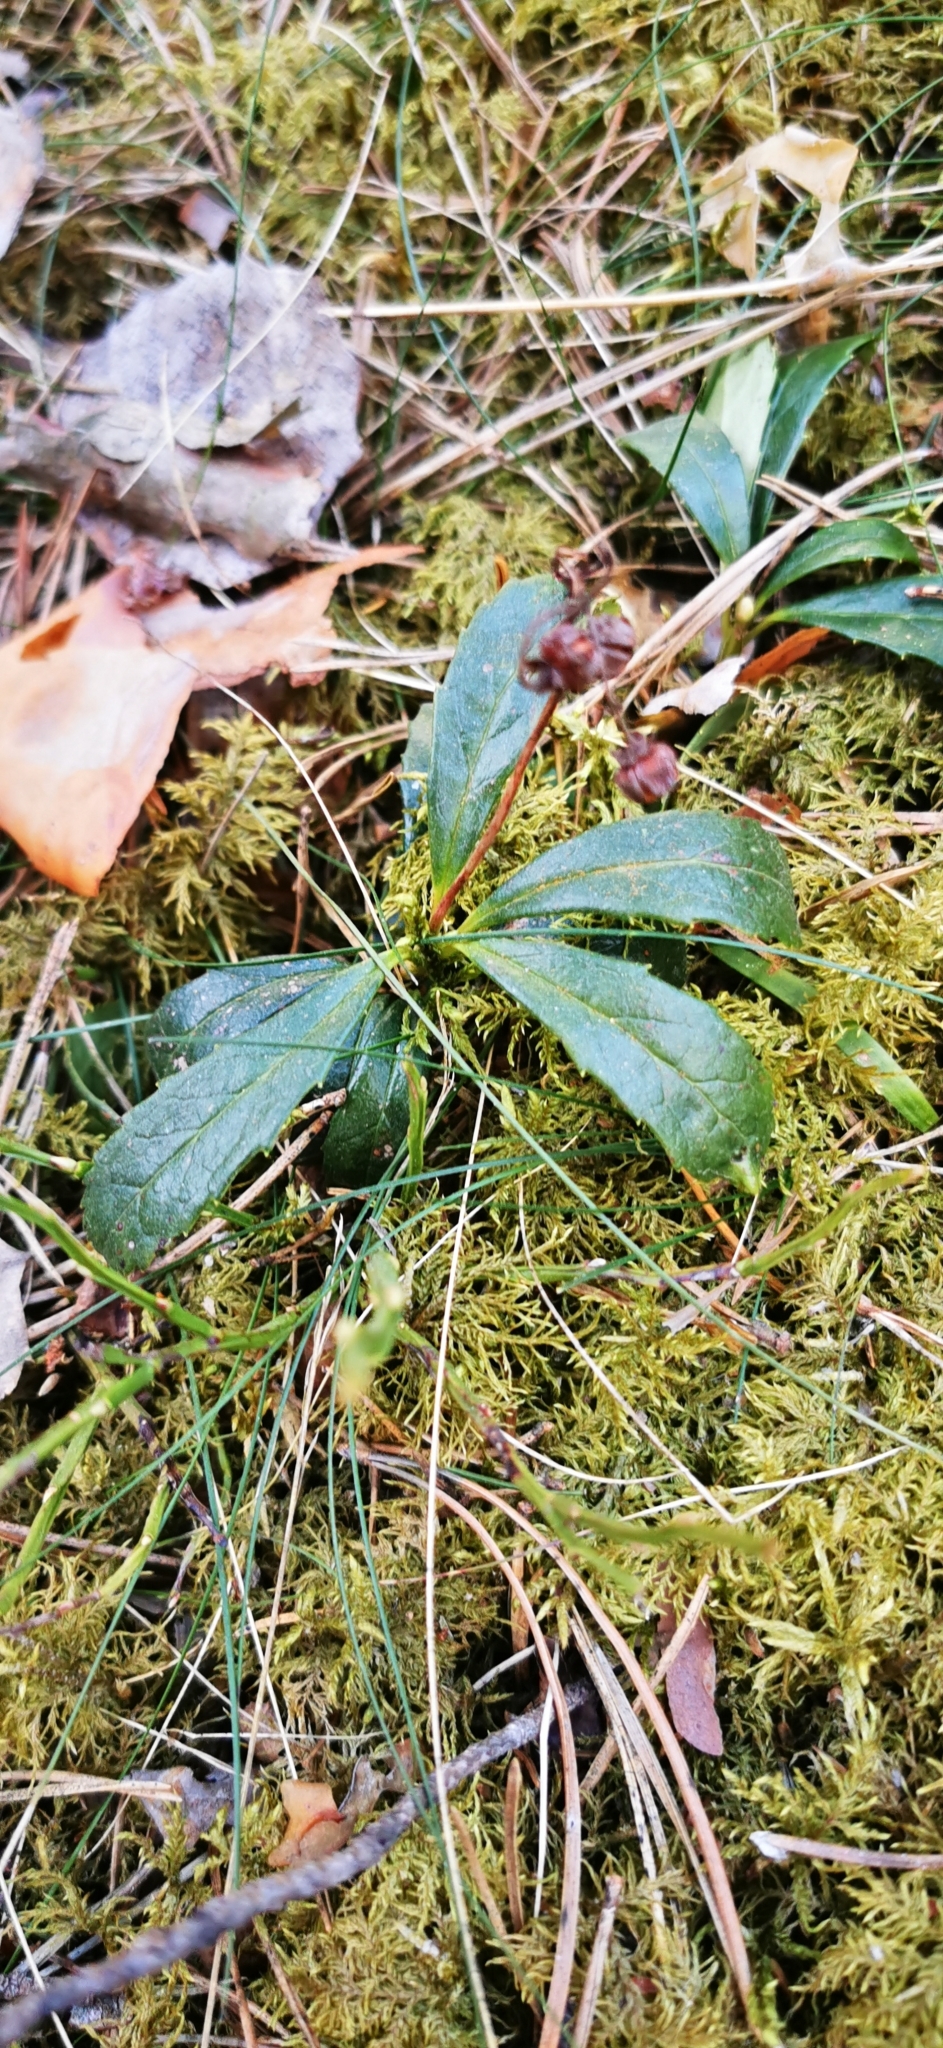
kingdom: Plantae
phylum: Tracheophyta
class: Magnoliopsida
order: Ericales
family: Ericaceae
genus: Chimaphila
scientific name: Chimaphila umbellata
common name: Pipsissewa
